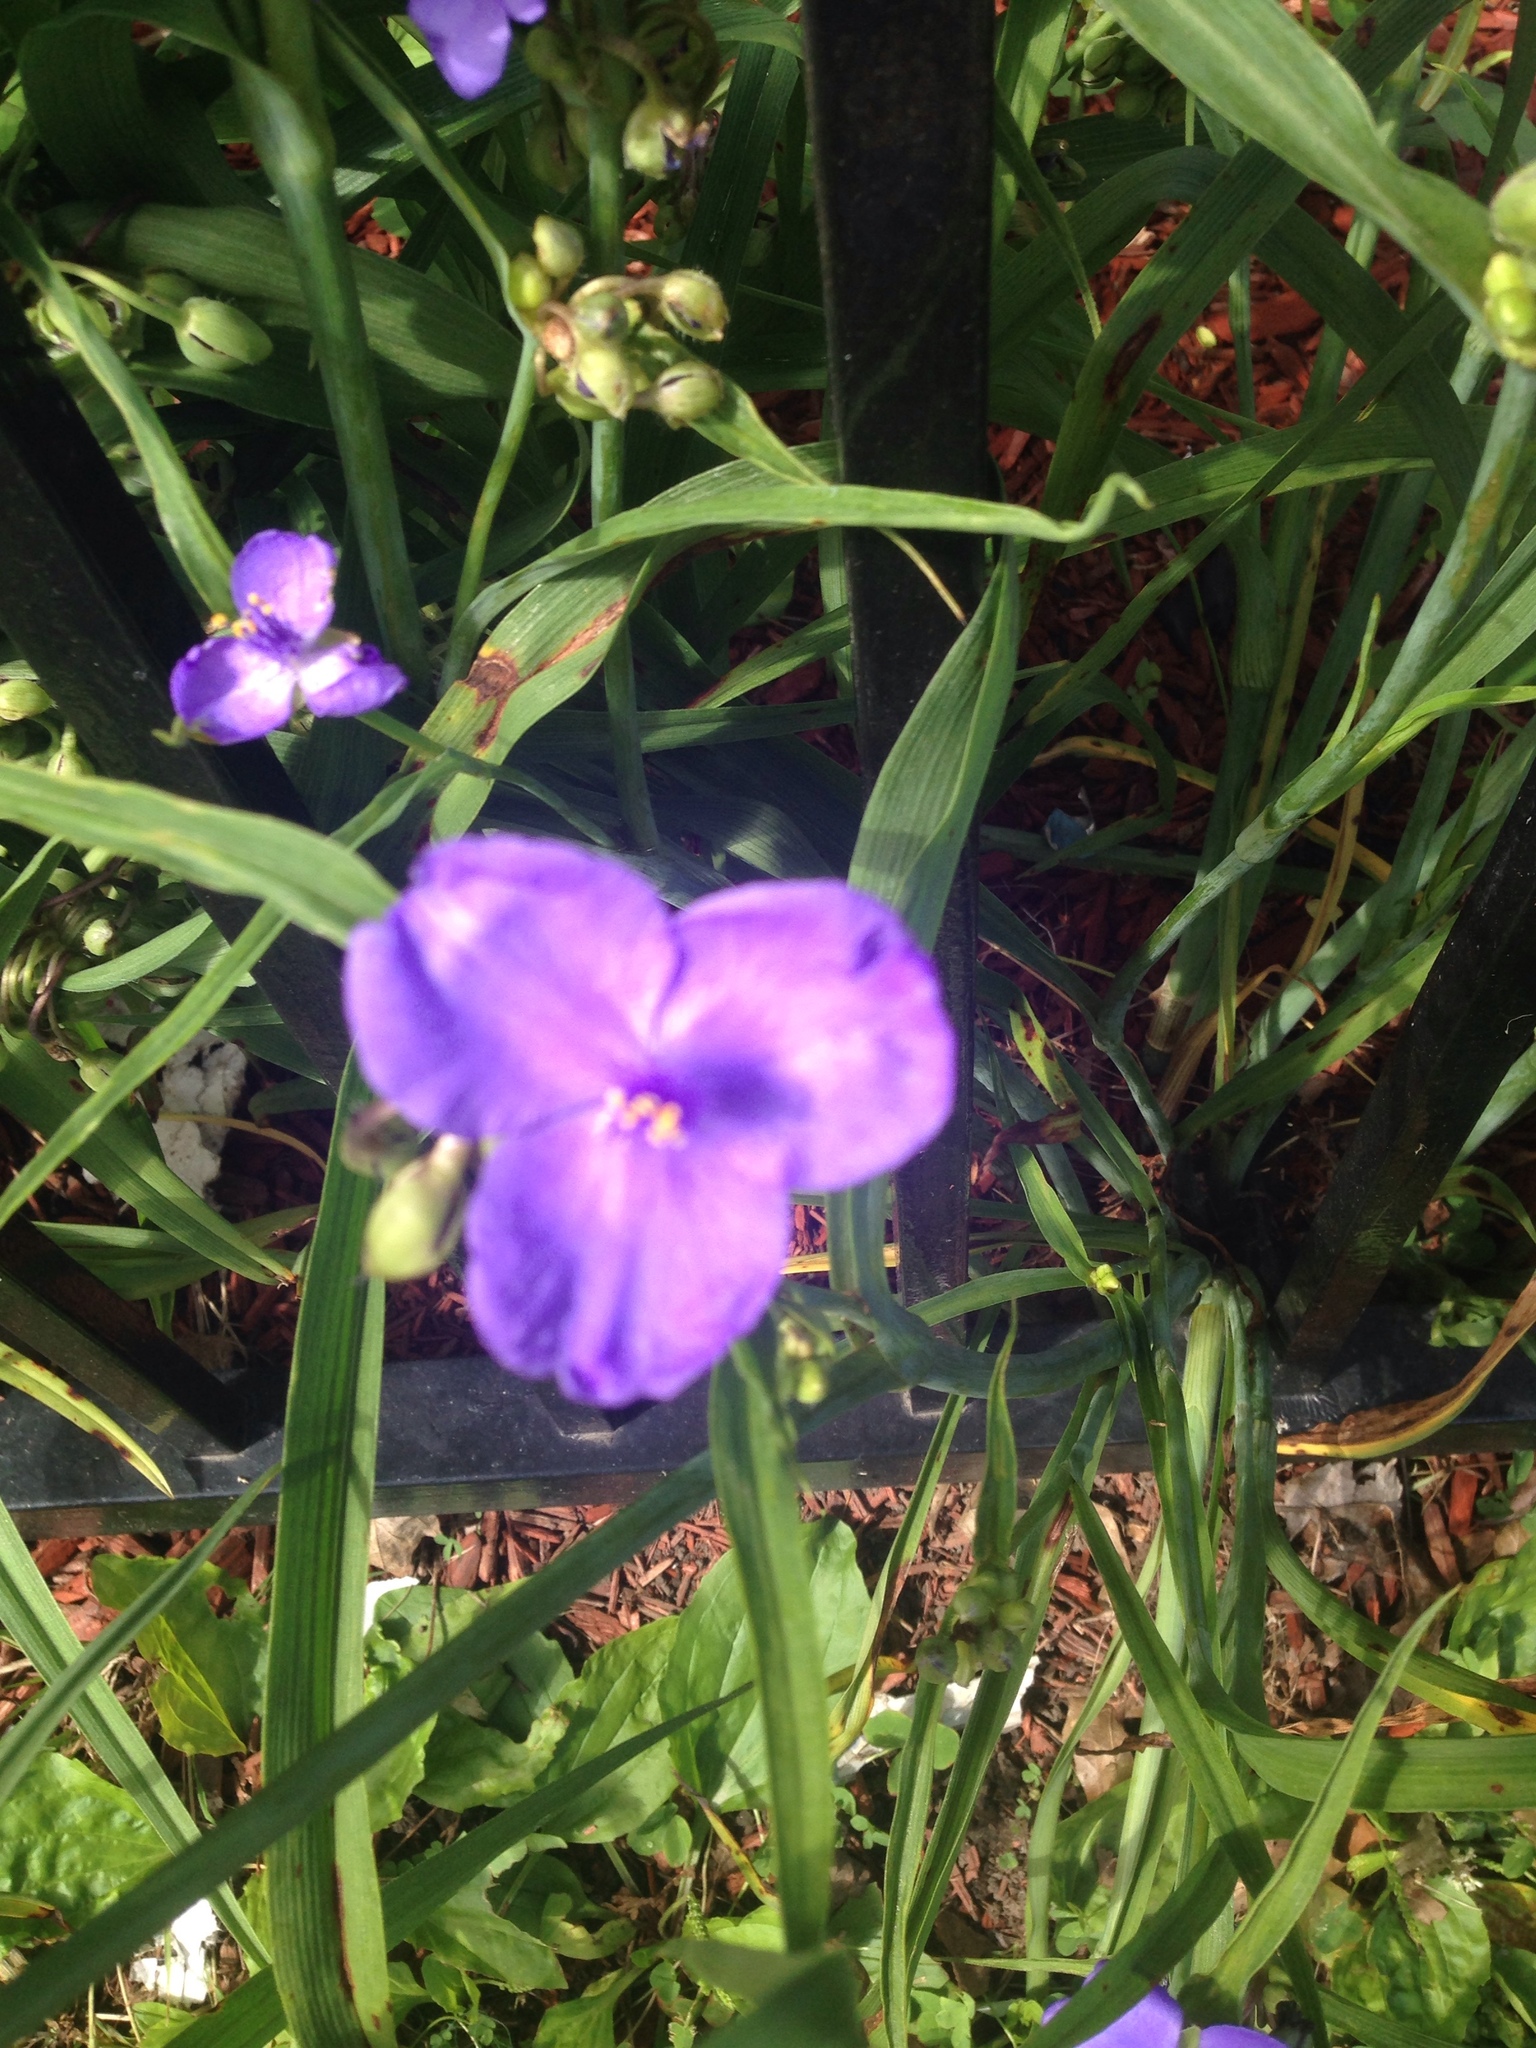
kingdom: Plantae
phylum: Tracheophyta
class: Liliopsida
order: Commelinales
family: Commelinaceae
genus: Tradescantia
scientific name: Tradescantia virginiana
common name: Spiderwort
